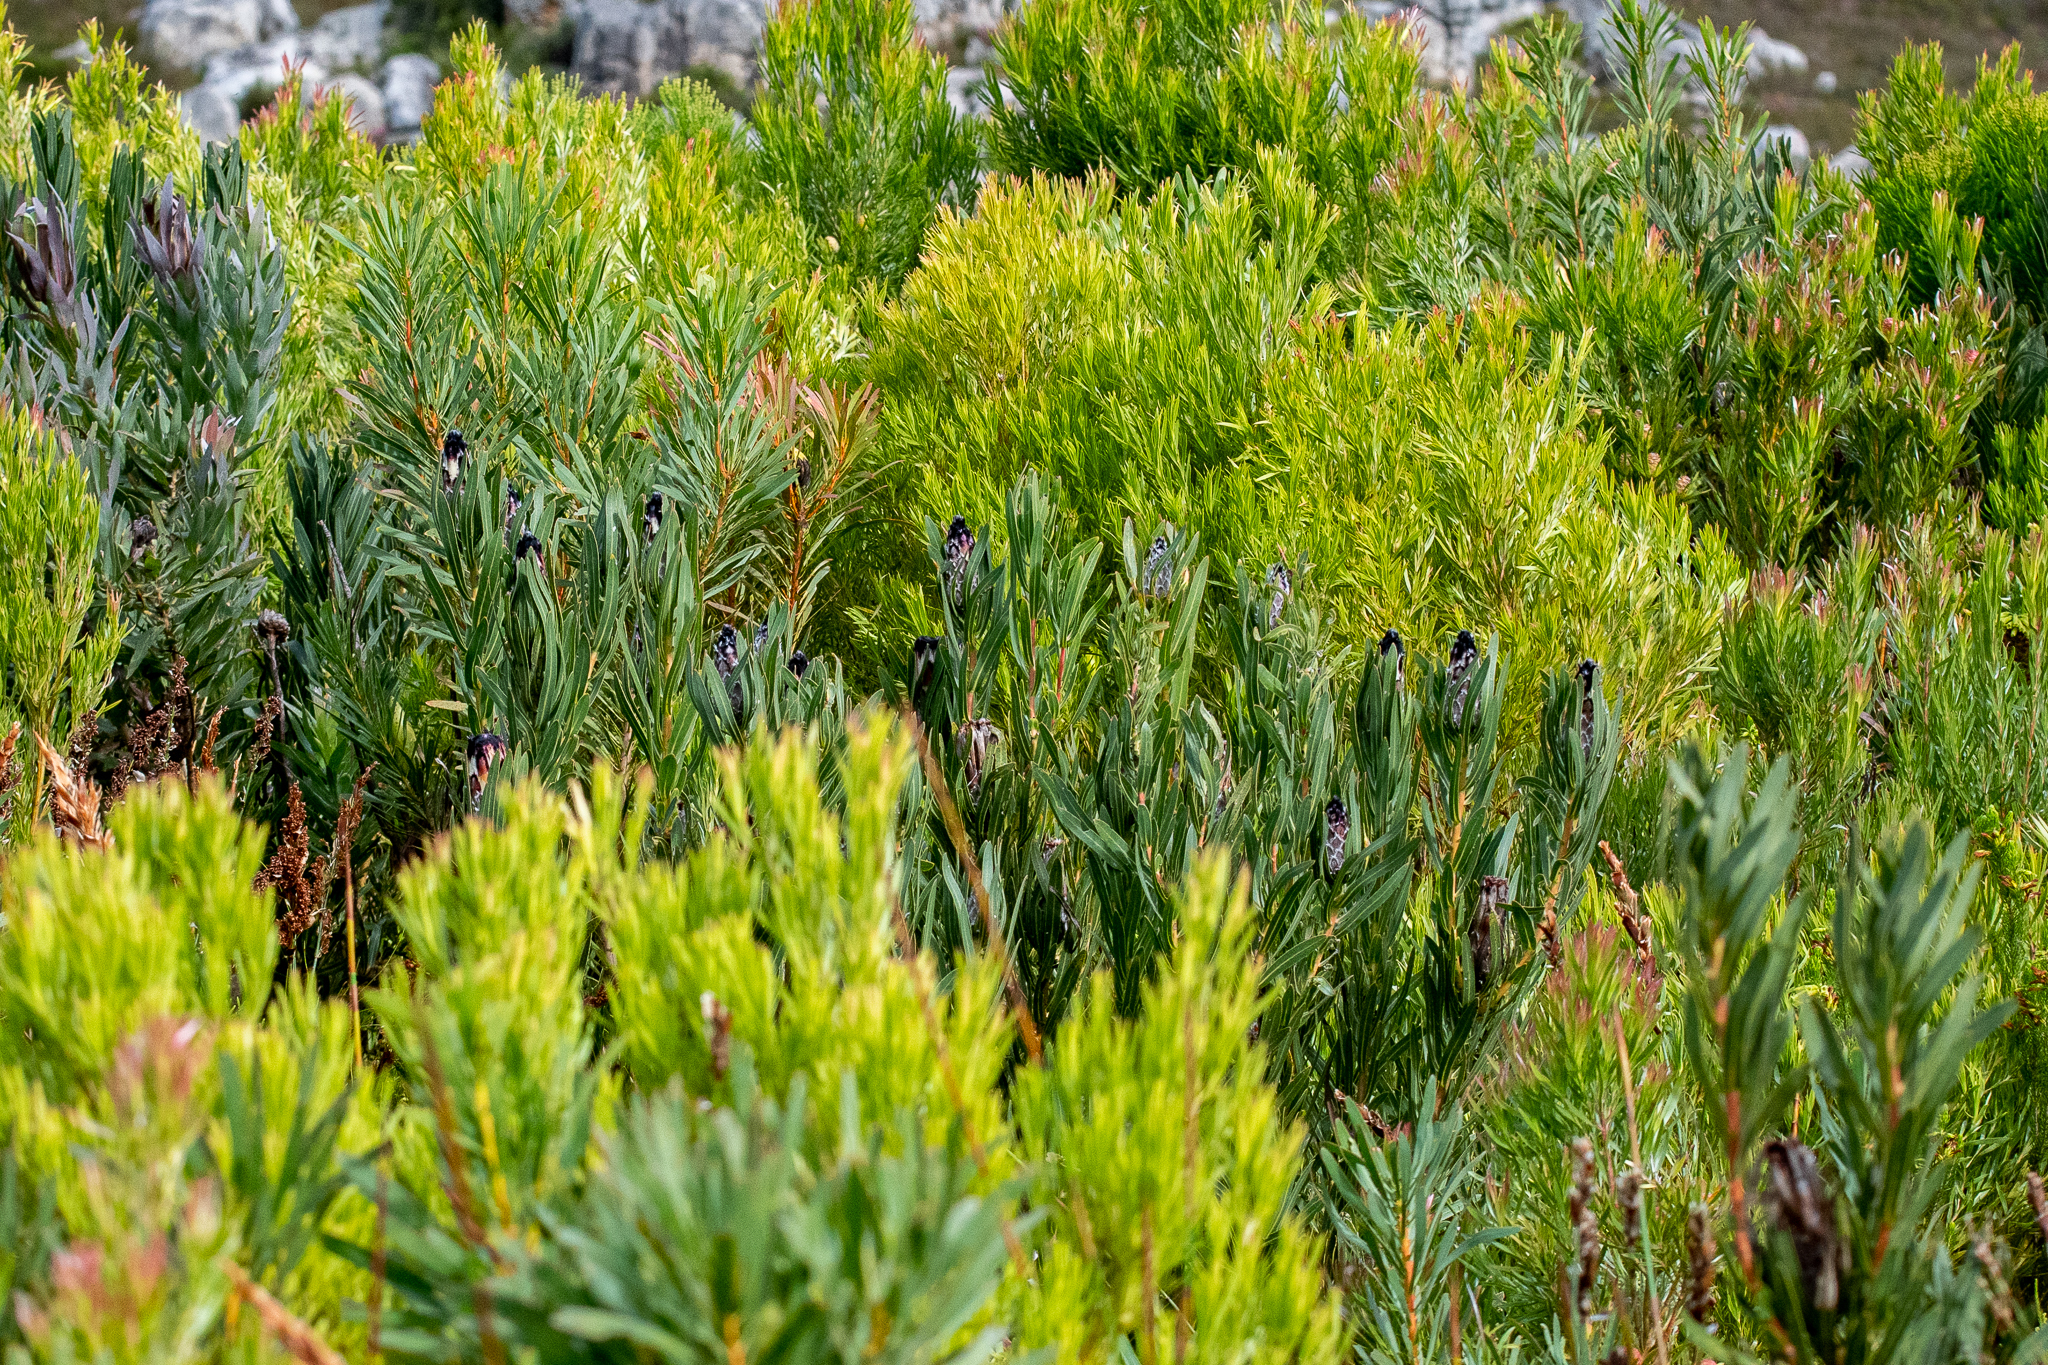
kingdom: Plantae
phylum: Tracheophyta
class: Magnoliopsida
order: Proteales
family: Proteaceae
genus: Protea
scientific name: Protea lepidocarpodendron
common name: Black-bearded protea
